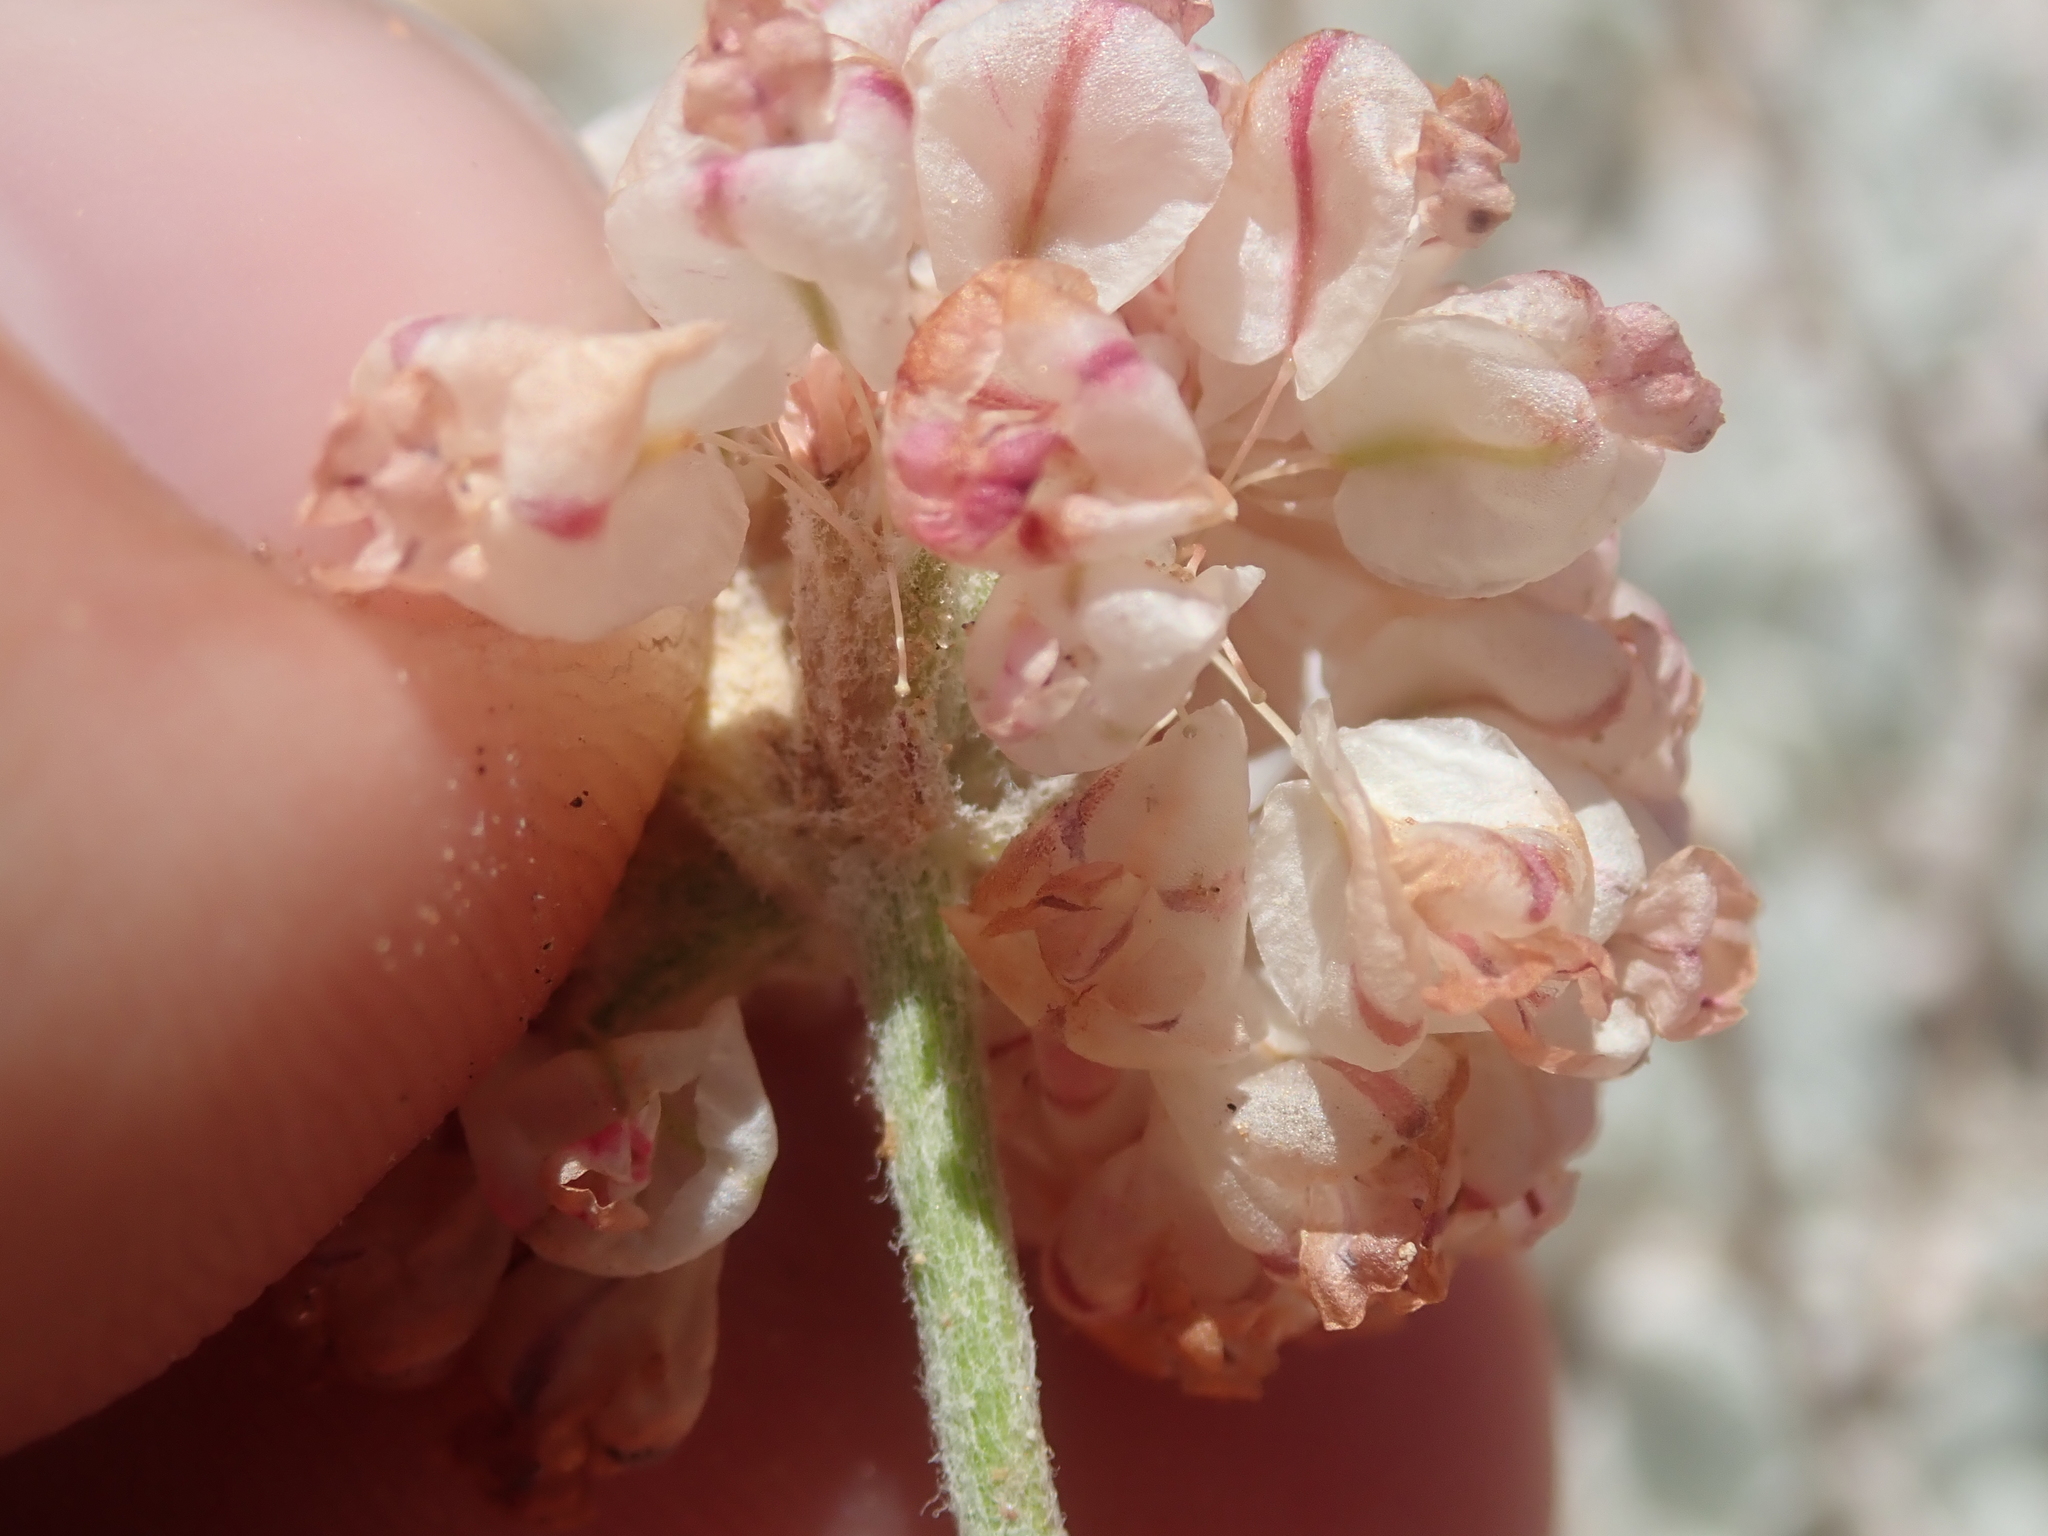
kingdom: Plantae
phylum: Tracheophyta
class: Magnoliopsida
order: Caryophyllales
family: Polygonaceae
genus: Eriogonum
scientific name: Eriogonum ovalifolium
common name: Cushion buckwheat
